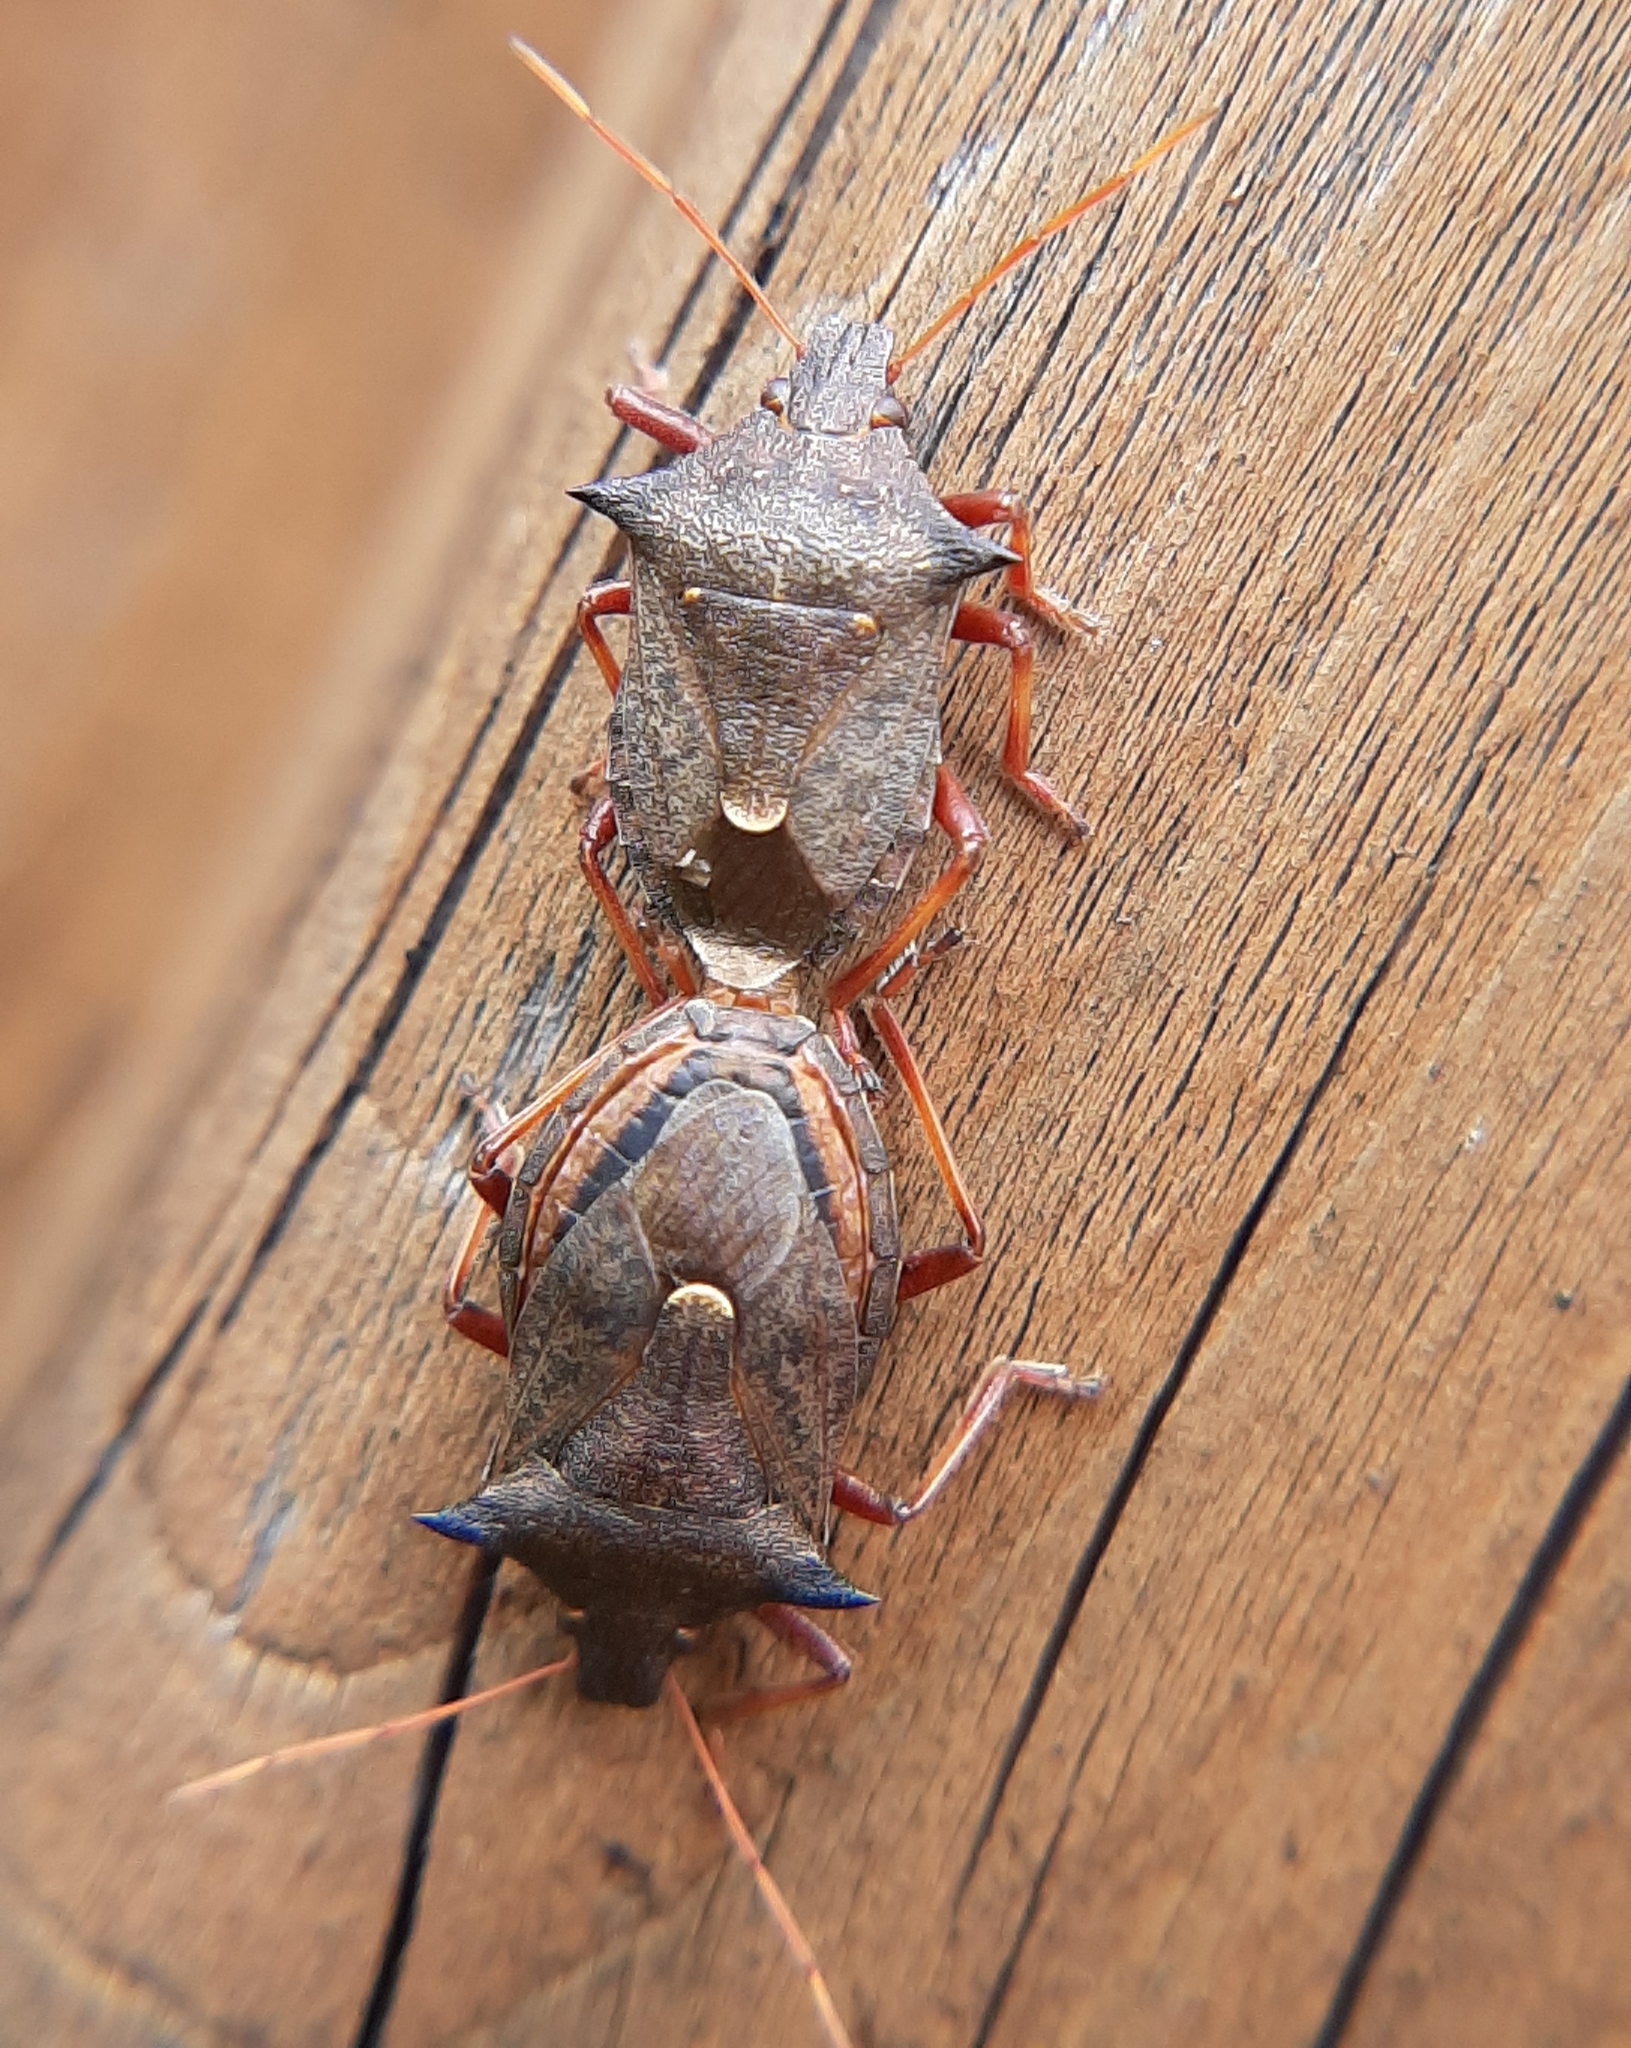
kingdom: Animalia
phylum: Arthropoda
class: Insecta
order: Hemiptera
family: Pentatomidae
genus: Picromerus
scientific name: Picromerus bidens
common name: Spiked shieldbug
